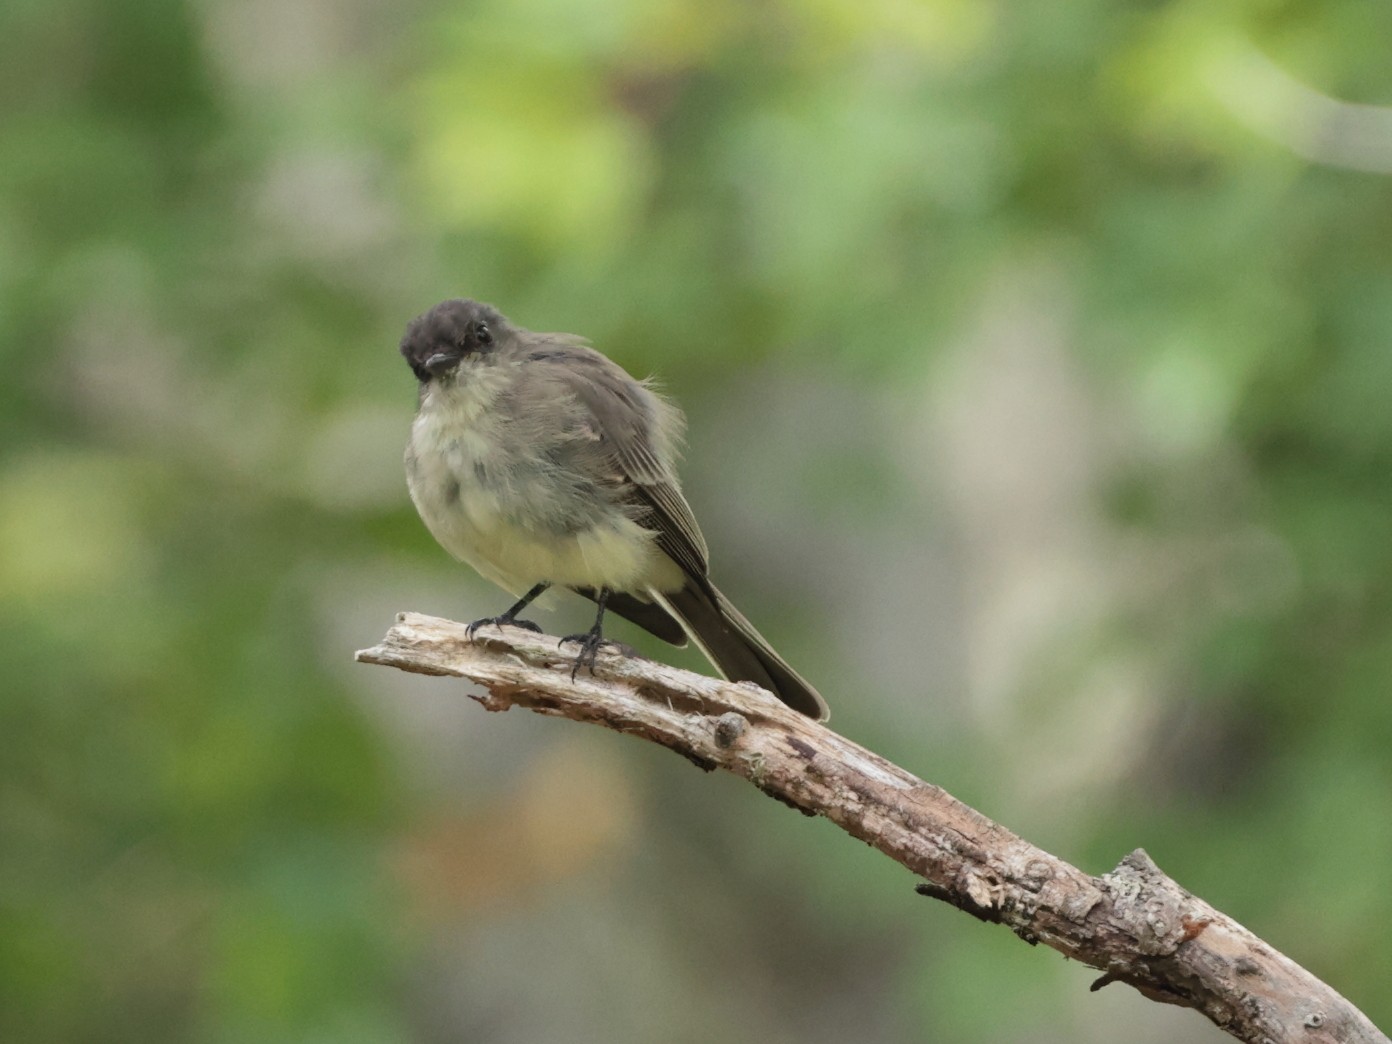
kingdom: Animalia
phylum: Chordata
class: Aves
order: Passeriformes
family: Tyrannidae
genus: Sayornis
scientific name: Sayornis phoebe
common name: Eastern phoebe
